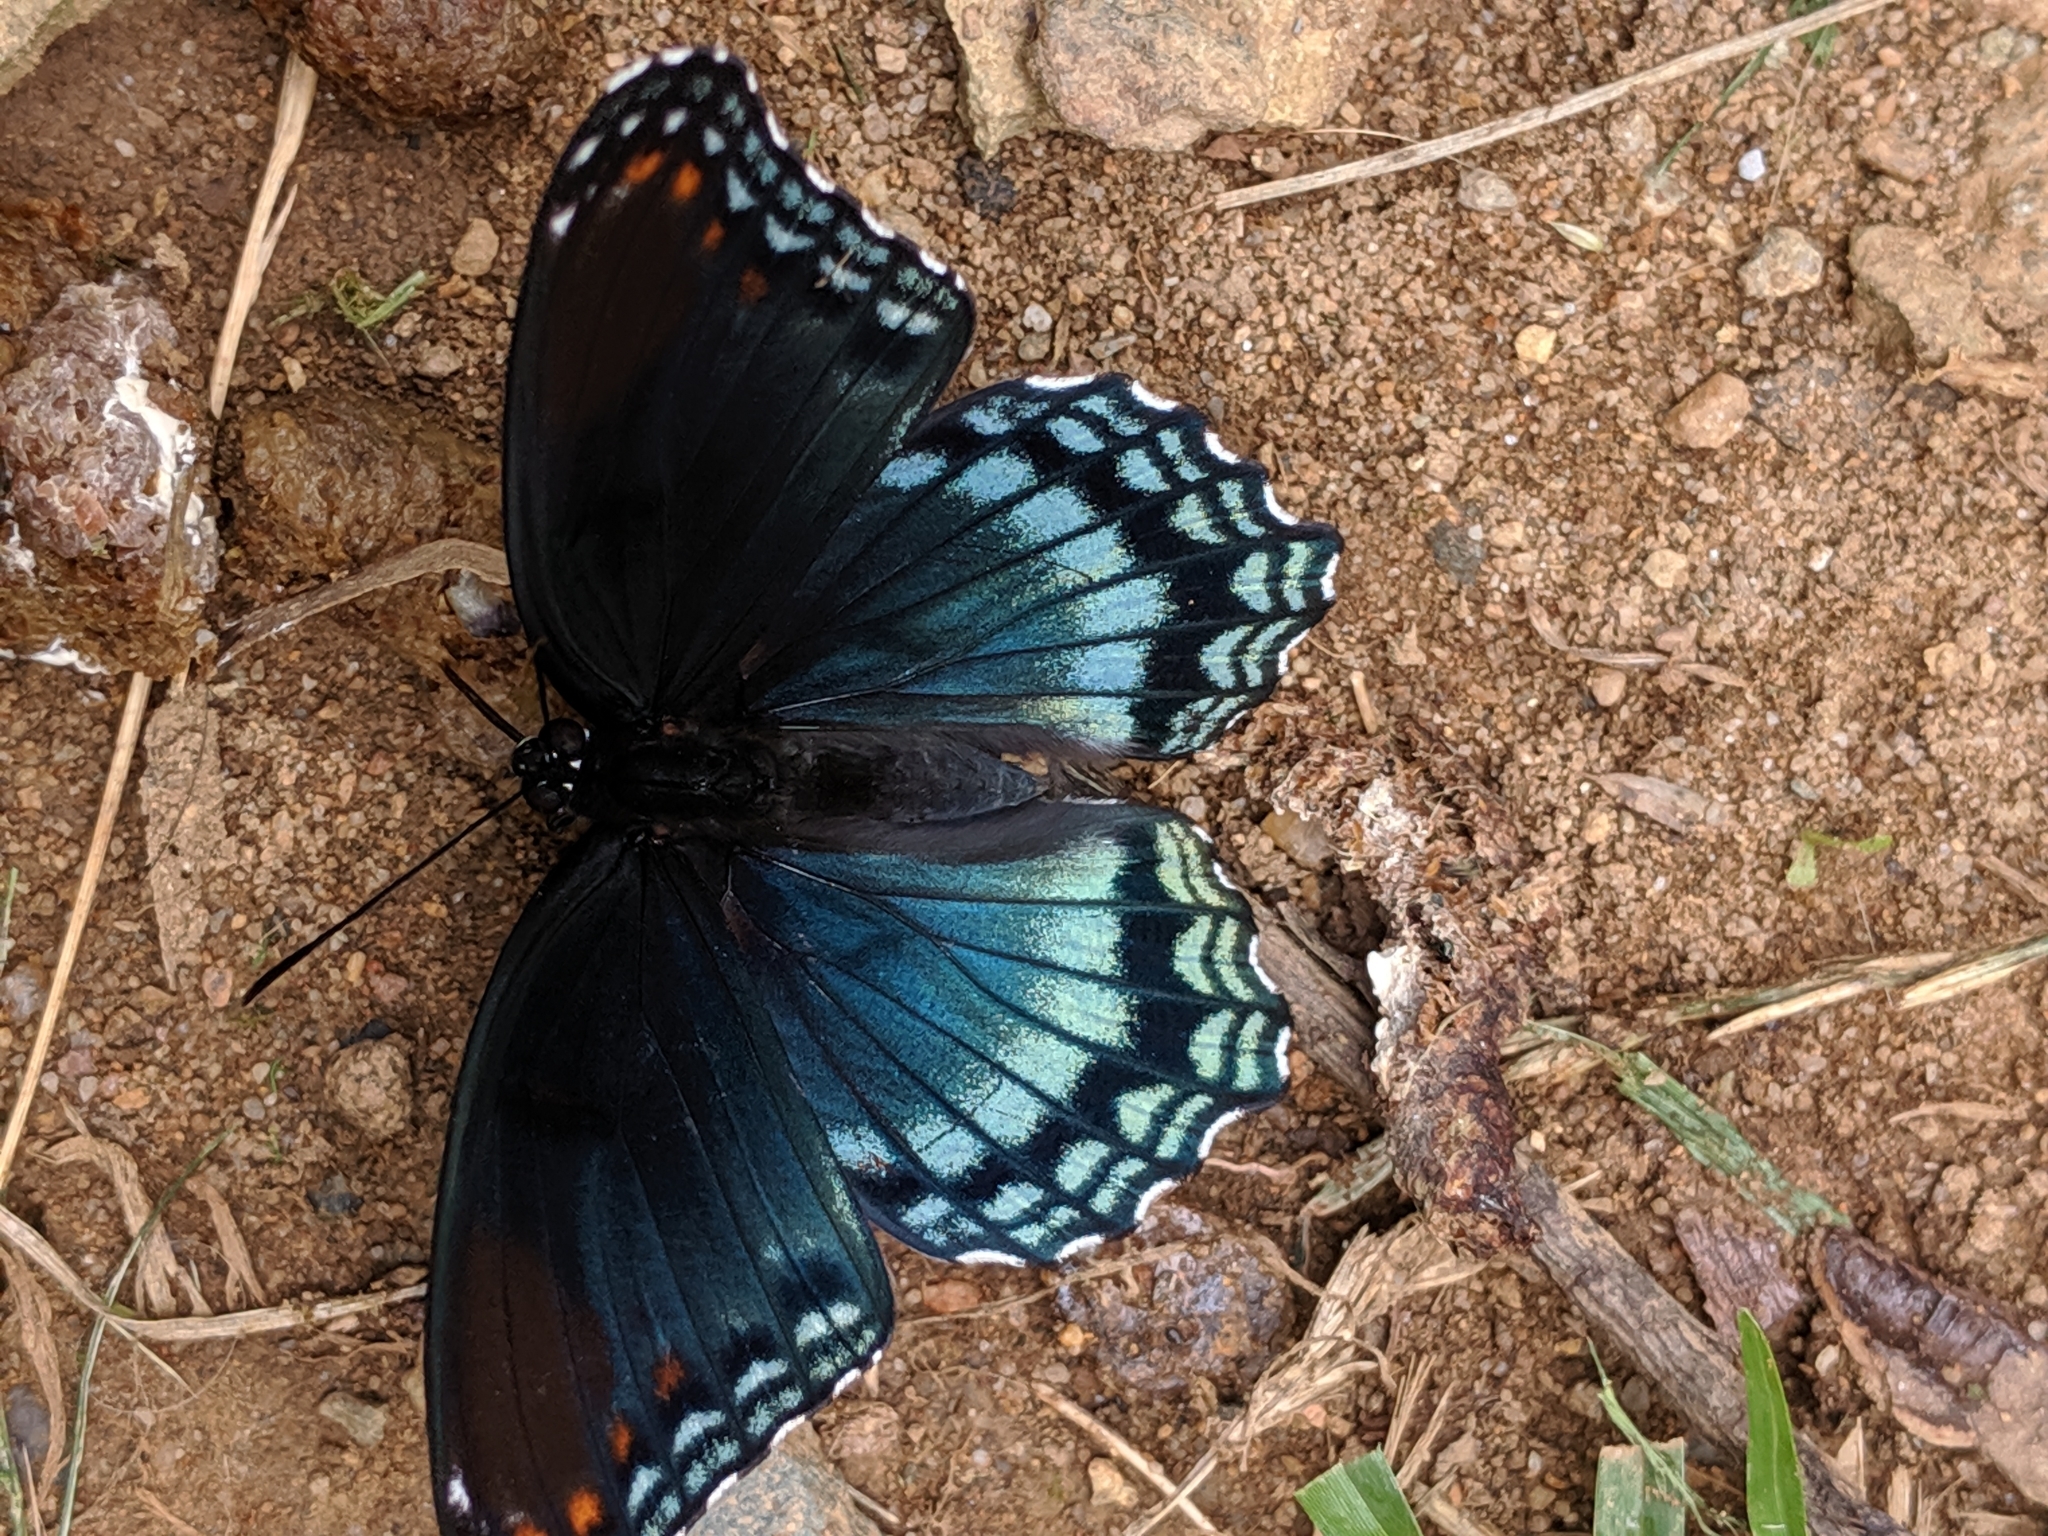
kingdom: Animalia
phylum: Arthropoda
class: Insecta
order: Lepidoptera
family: Nymphalidae
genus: Limenitis
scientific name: Limenitis astyanax
